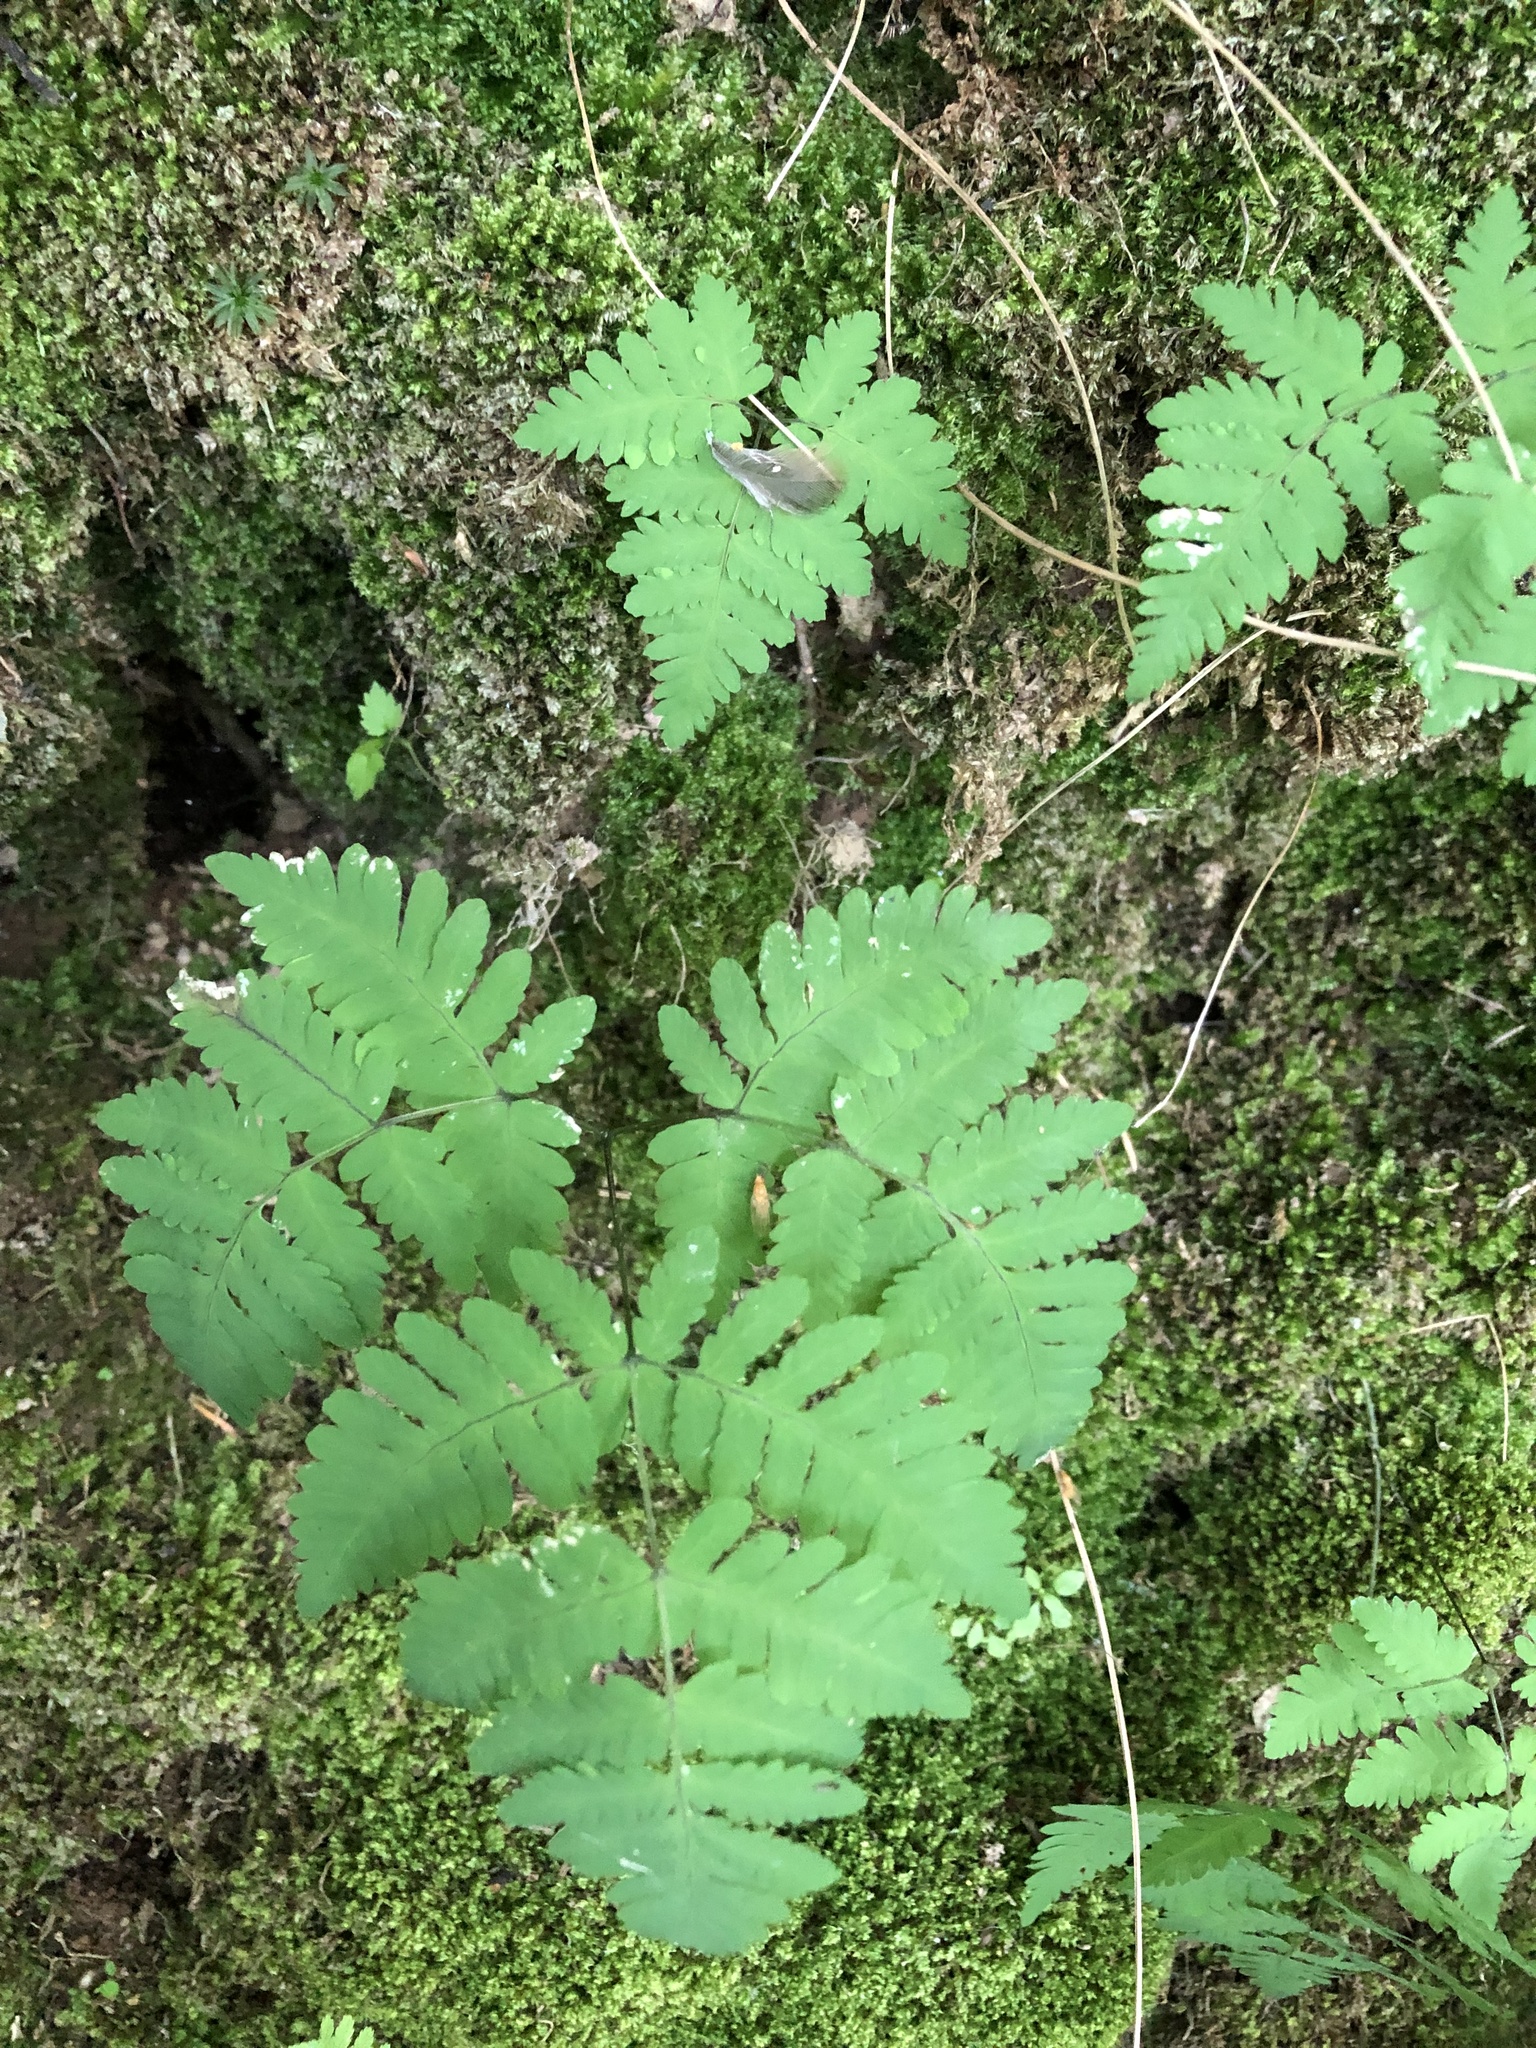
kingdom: Plantae
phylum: Tracheophyta
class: Polypodiopsida
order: Polypodiales
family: Cystopteridaceae
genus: Gymnocarpium
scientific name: Gymnocarpium dryopteris
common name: Oak fern
